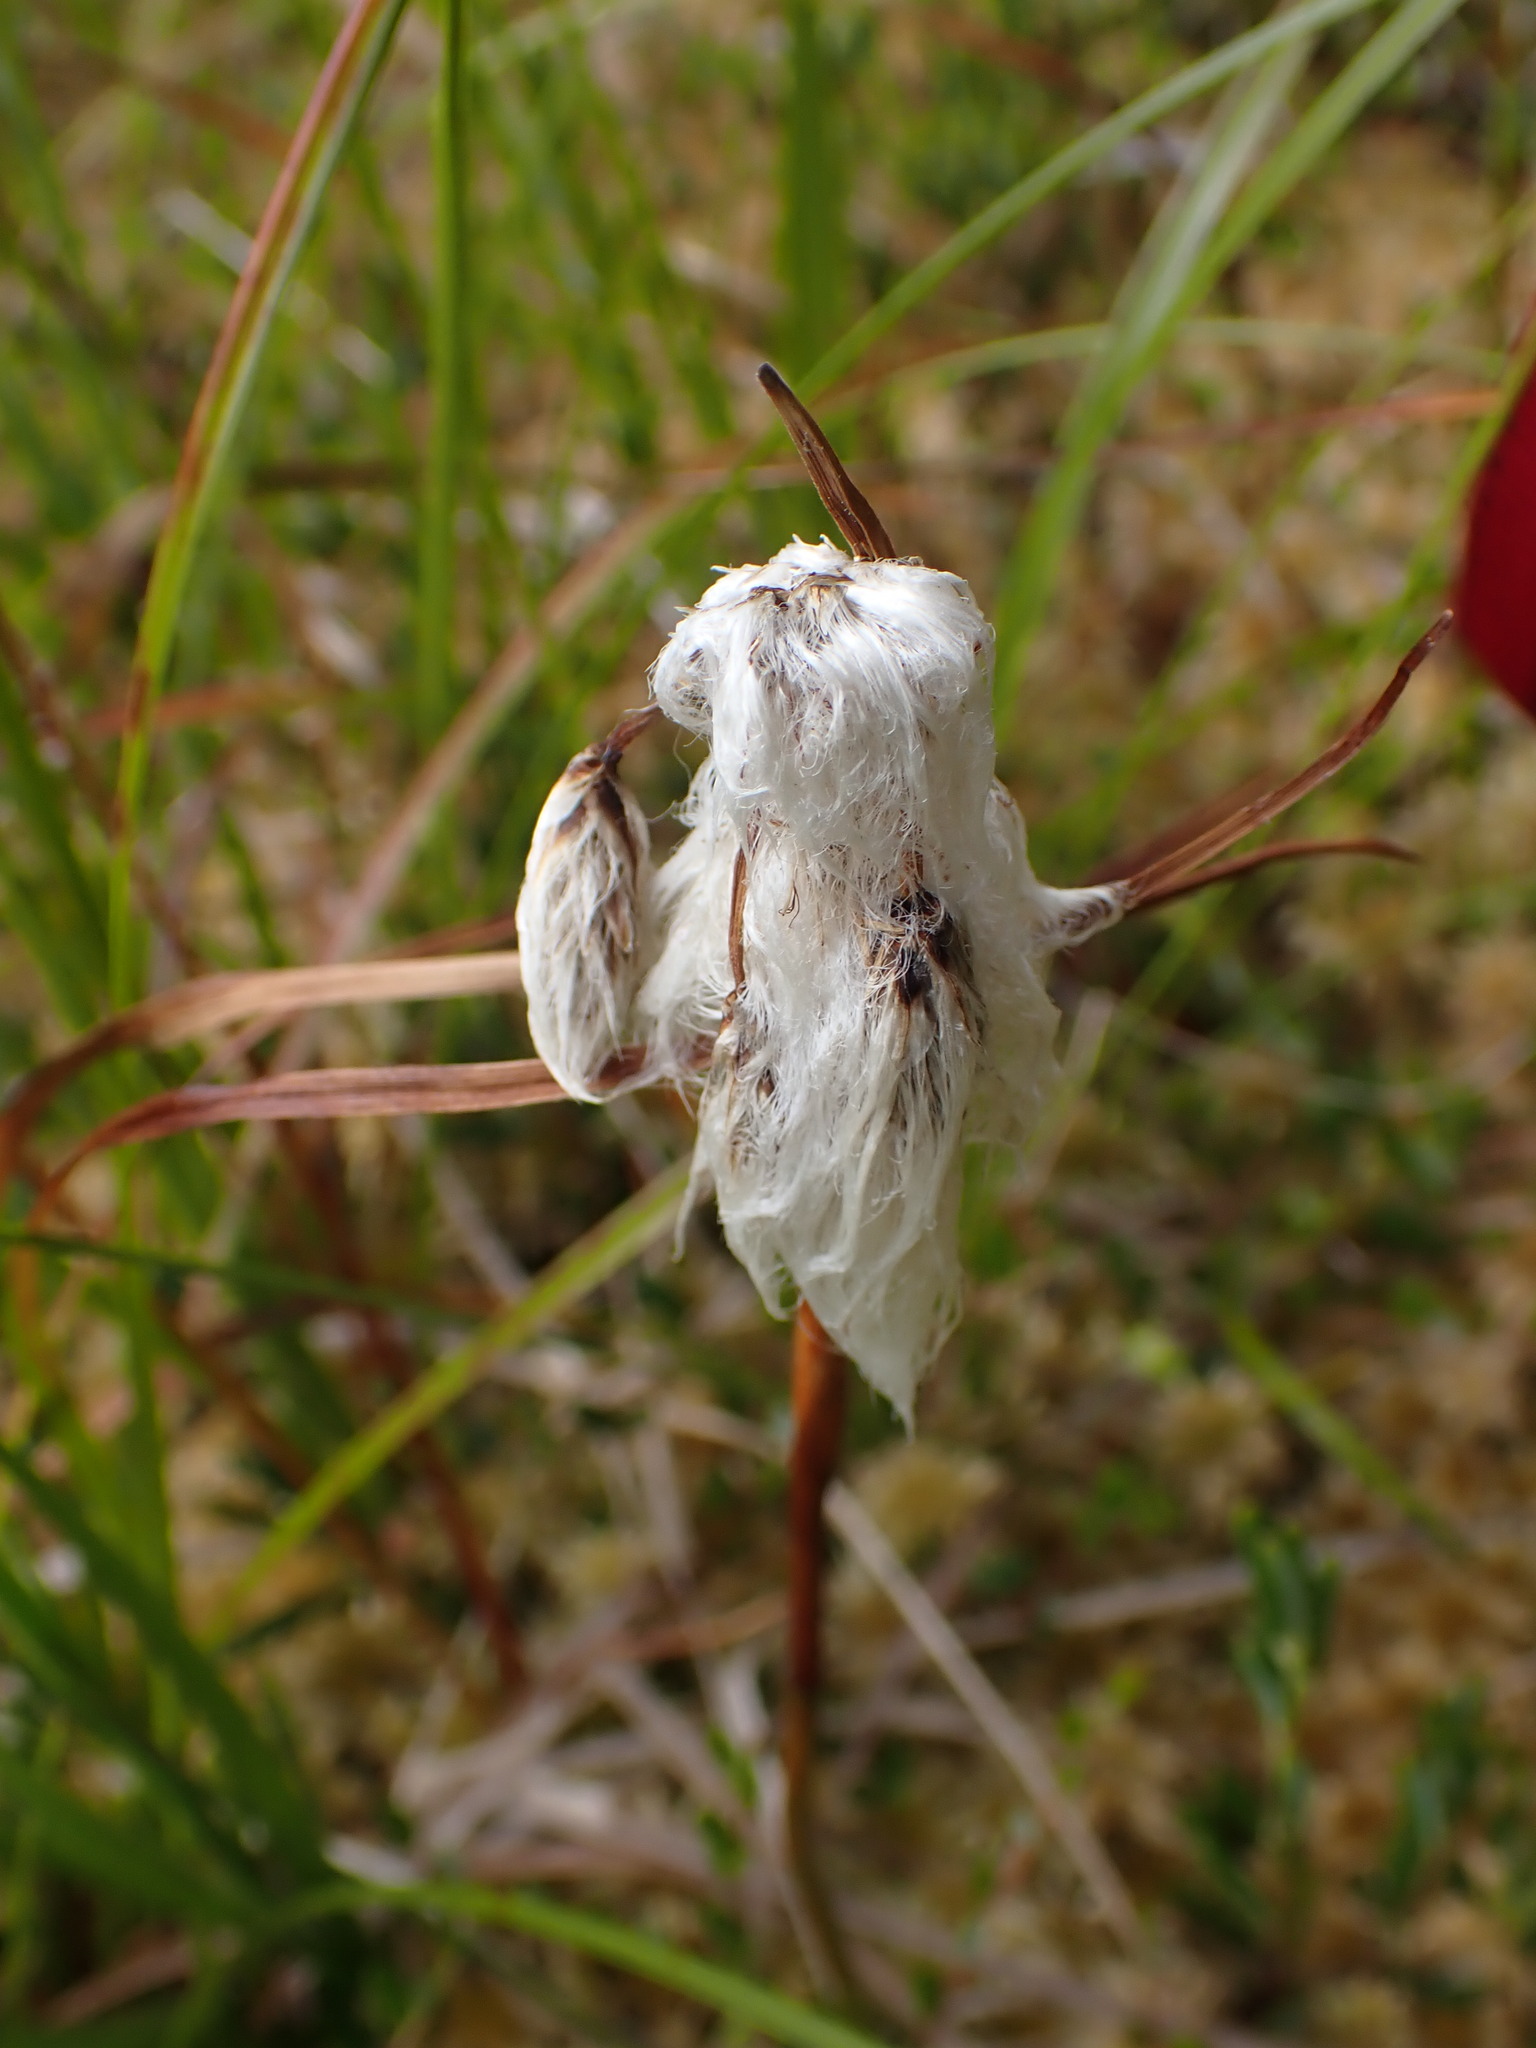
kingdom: Plantae
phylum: Tracheophyta
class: Liliopsida
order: Poales
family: Cyperaceae
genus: Eriophorum
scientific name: Eriophorum angustifolium
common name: Common cottongrass
